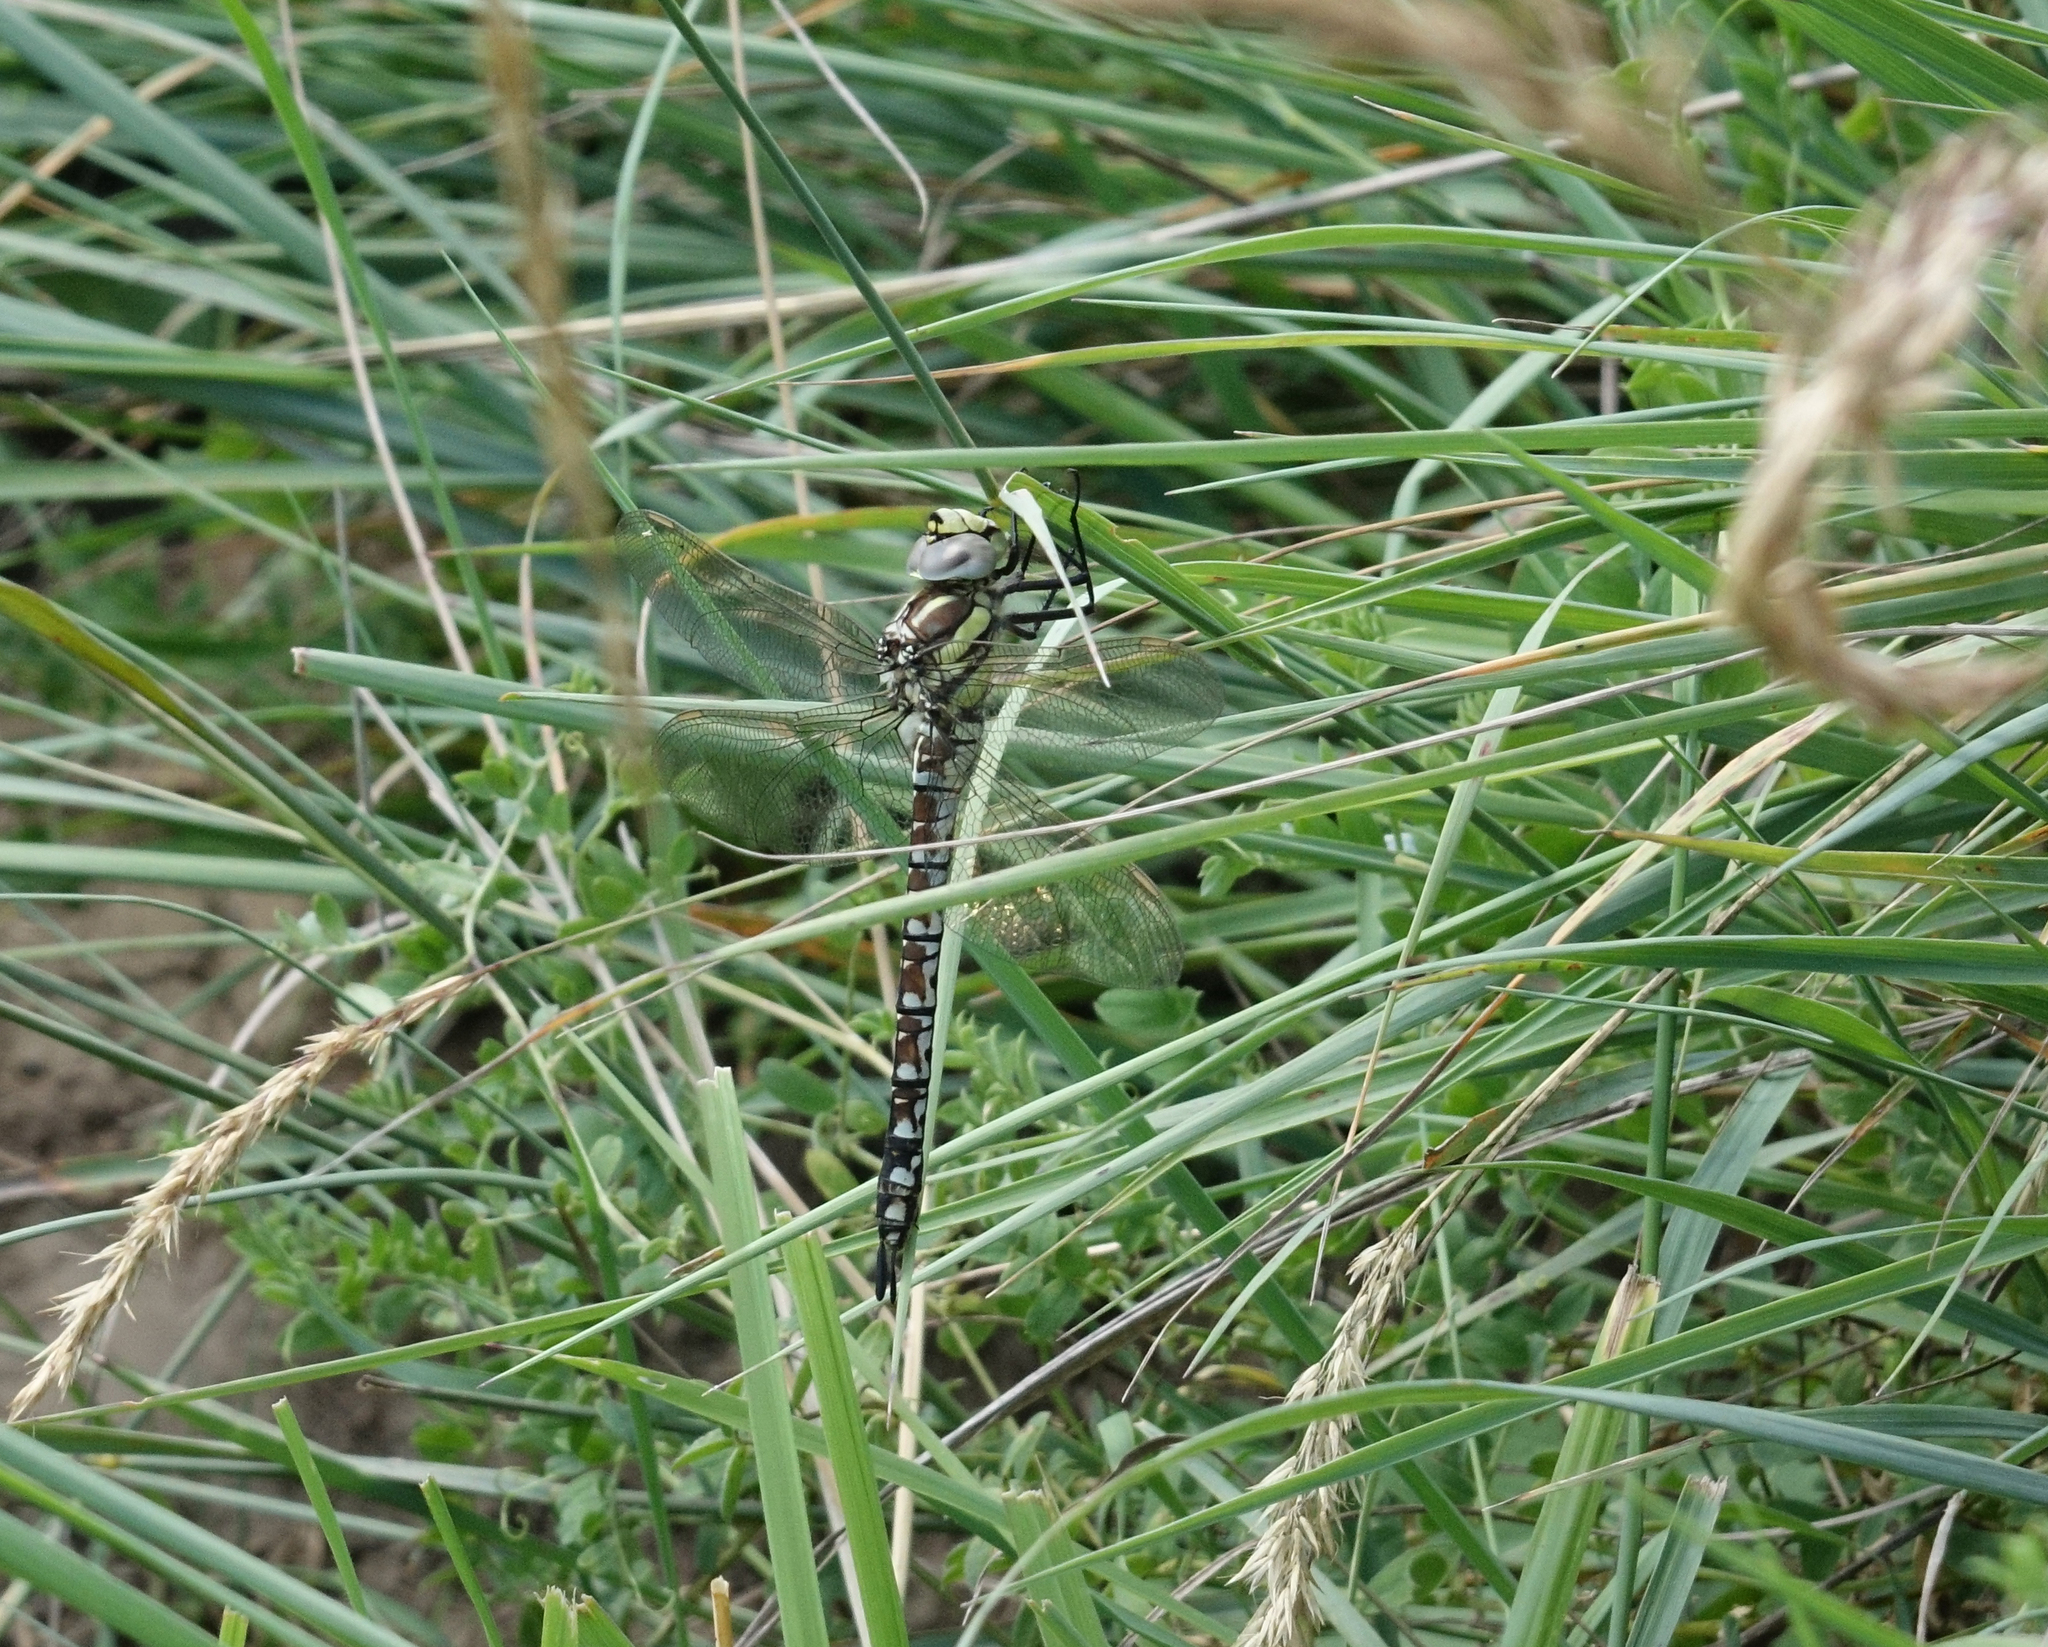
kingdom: Animalia
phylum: Arthropoda
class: Insecta
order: Odonata
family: Aeshnidae
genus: Aeshna
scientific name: Aeshna juncea
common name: Moorland hawker
